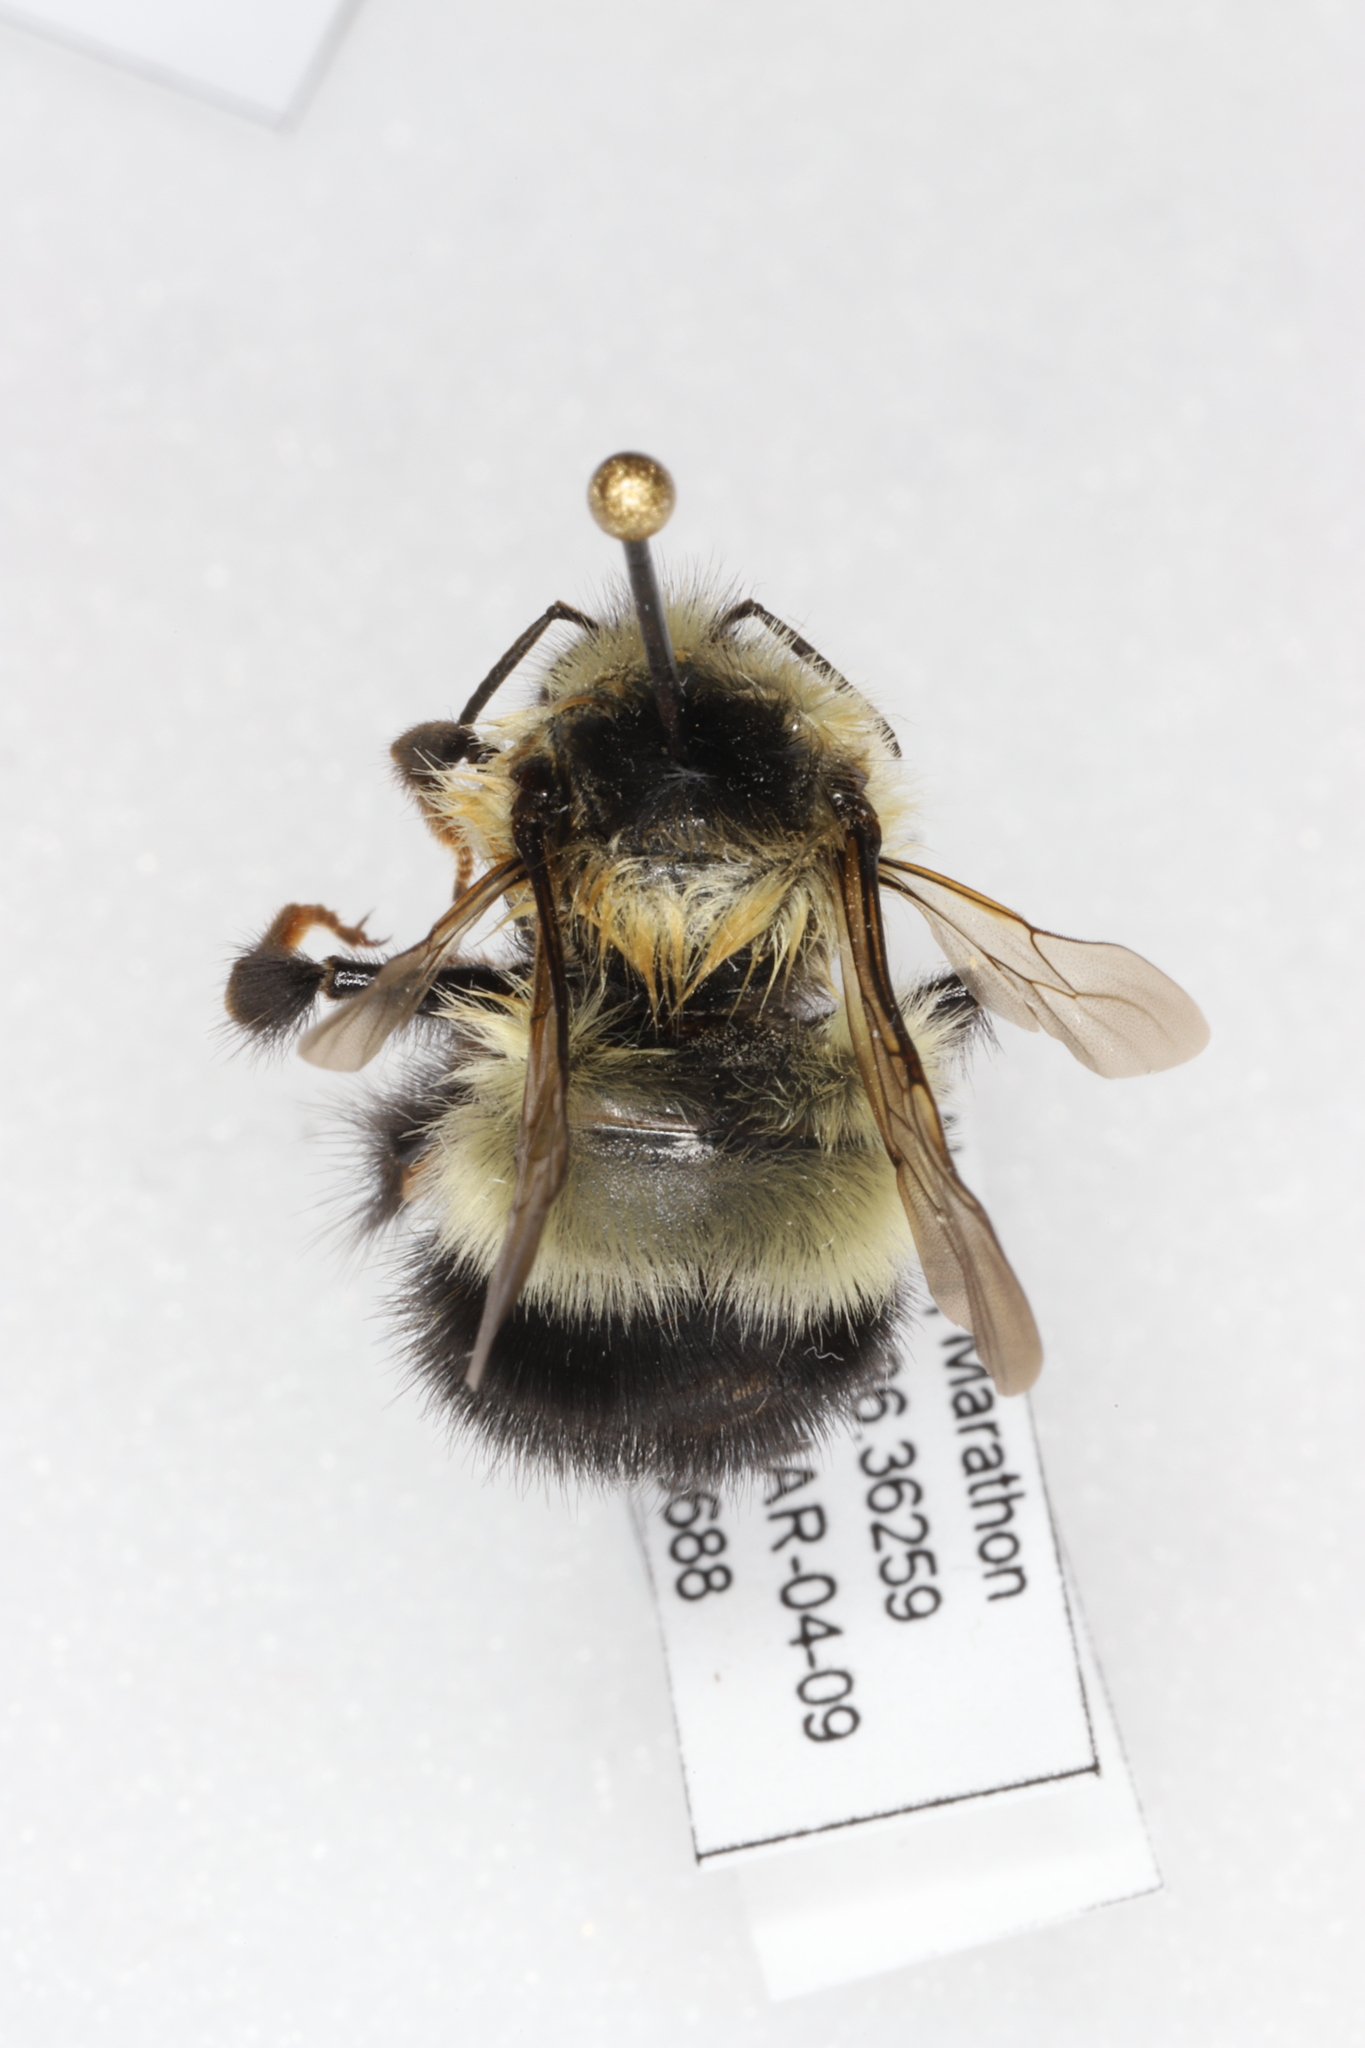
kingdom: Animalia
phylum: Arthropoda
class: Insecta
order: Hymenoptera
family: Apidae
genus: Bombus
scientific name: Bombus sandersoni
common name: Sanderson bumble bee
